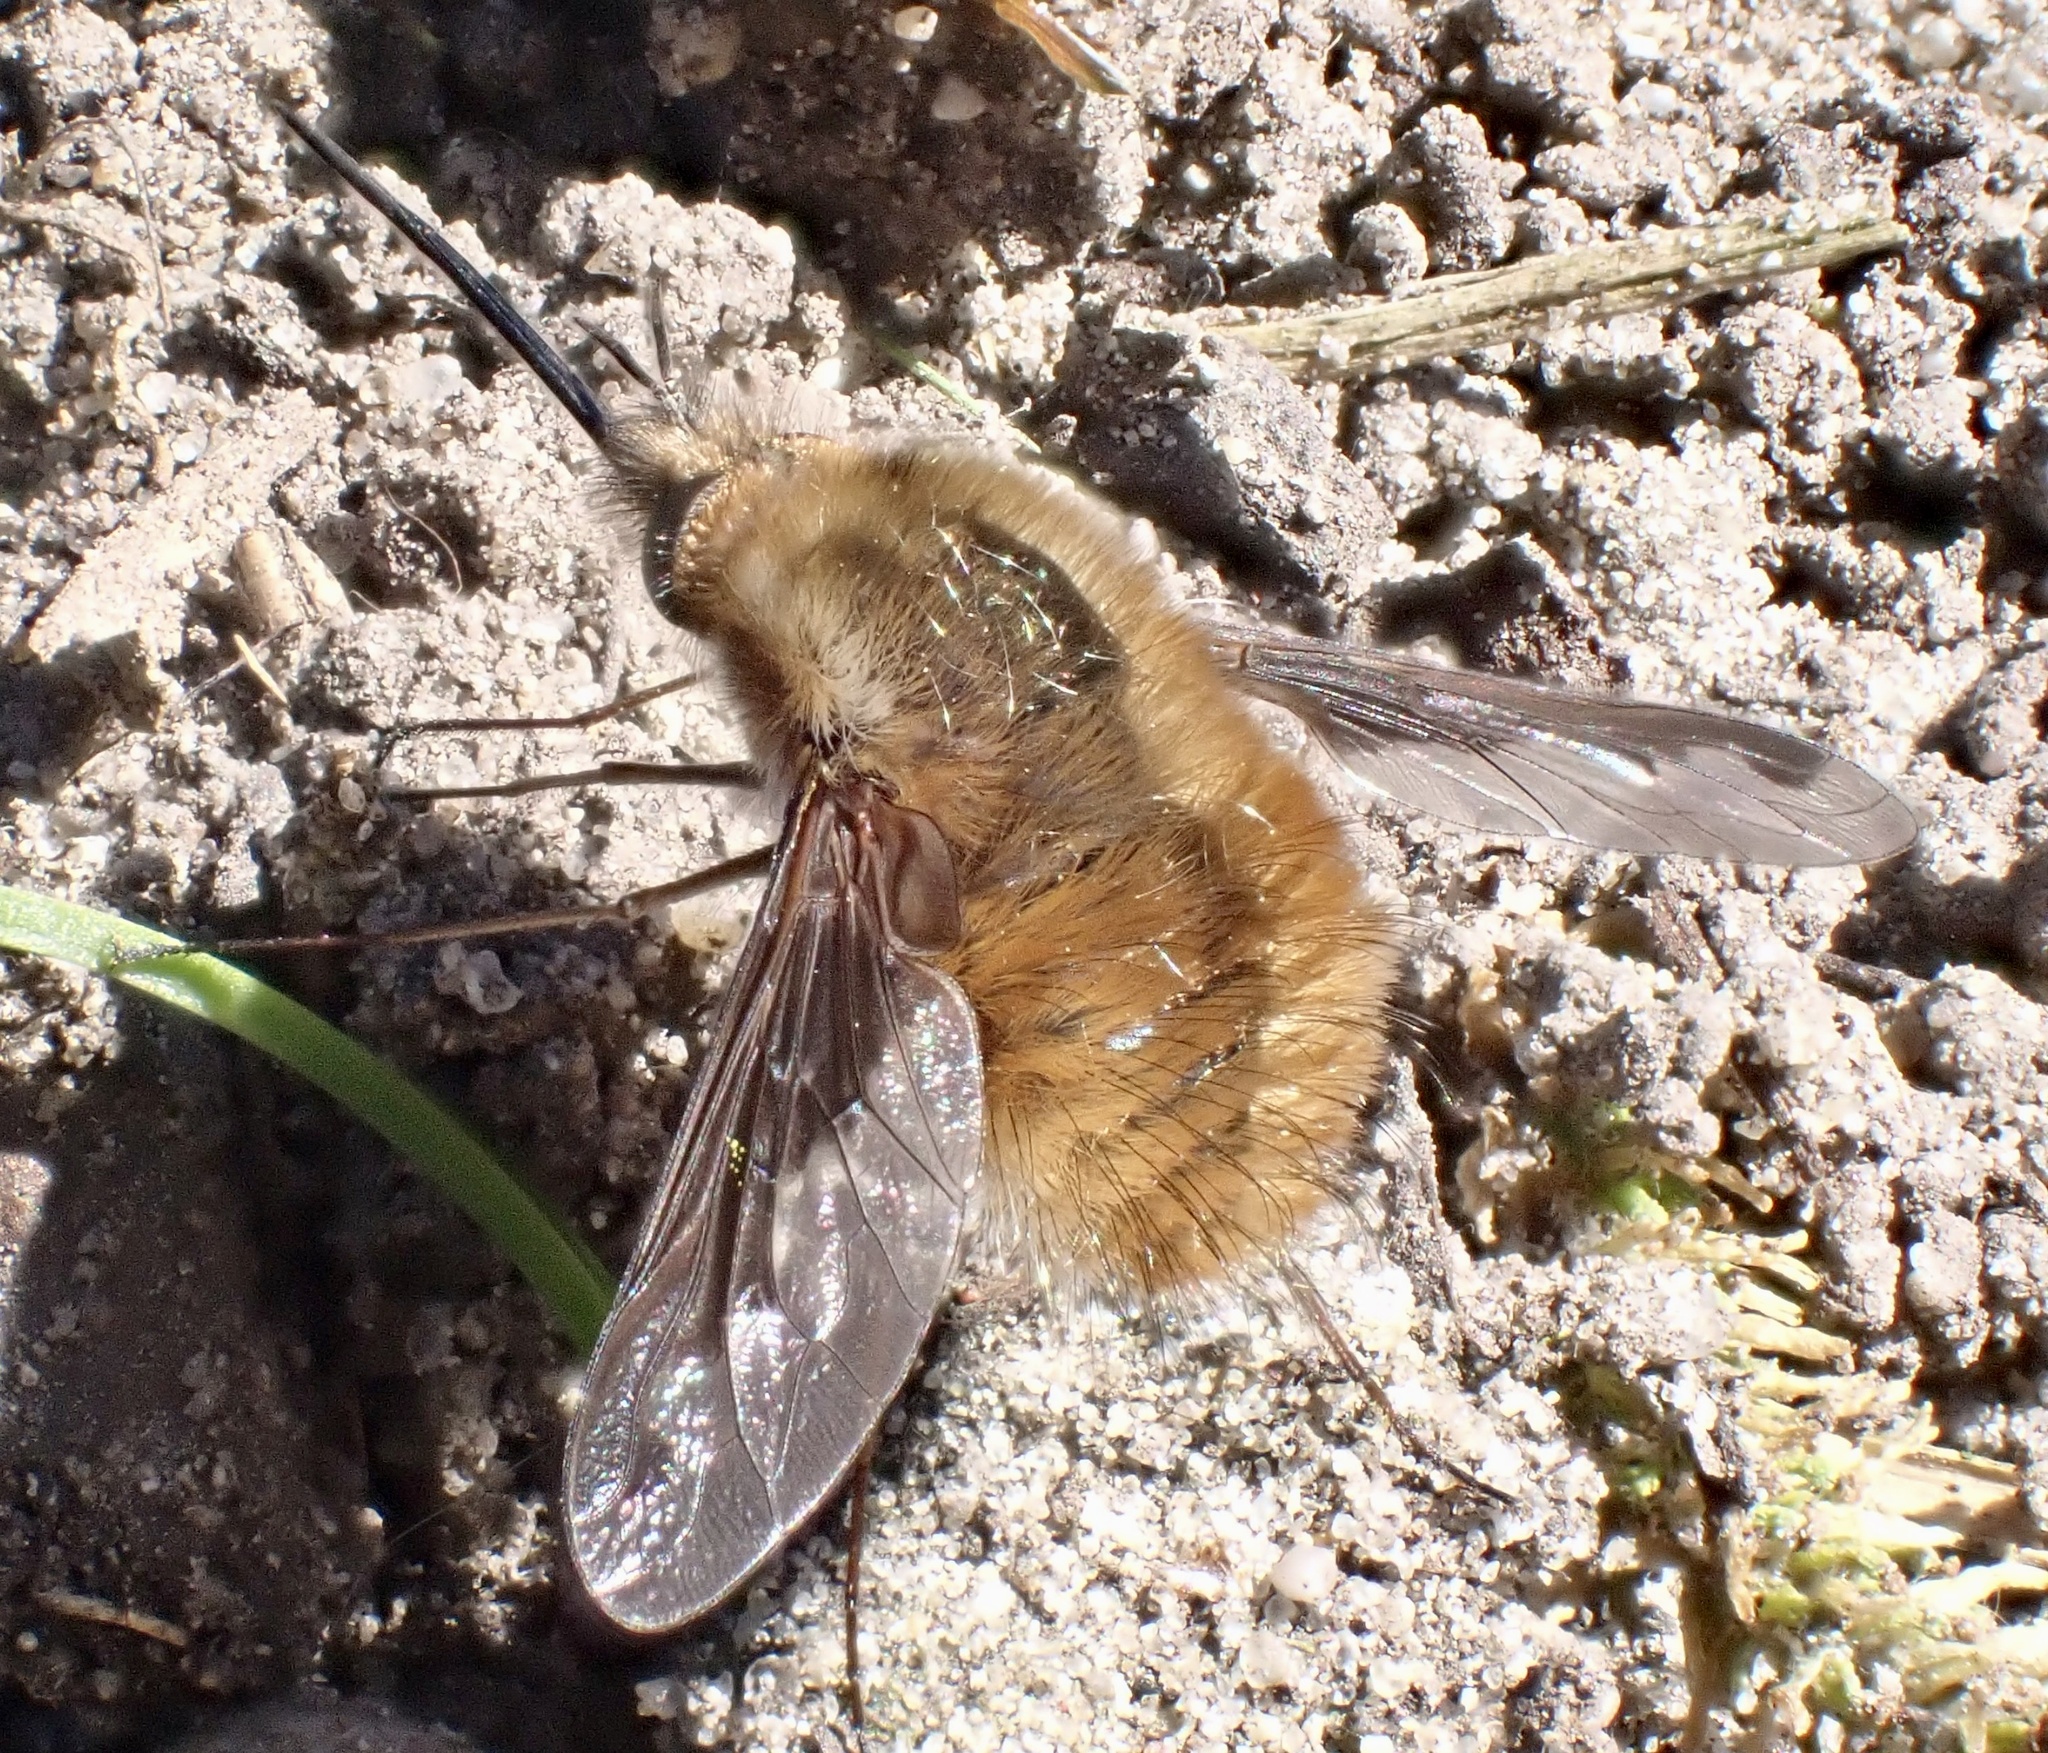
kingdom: Animalia
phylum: Arthropoda
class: Insecta
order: Diptera
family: Bombyliidae
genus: Bombylius
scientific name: Bombylius major
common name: Bee fly
